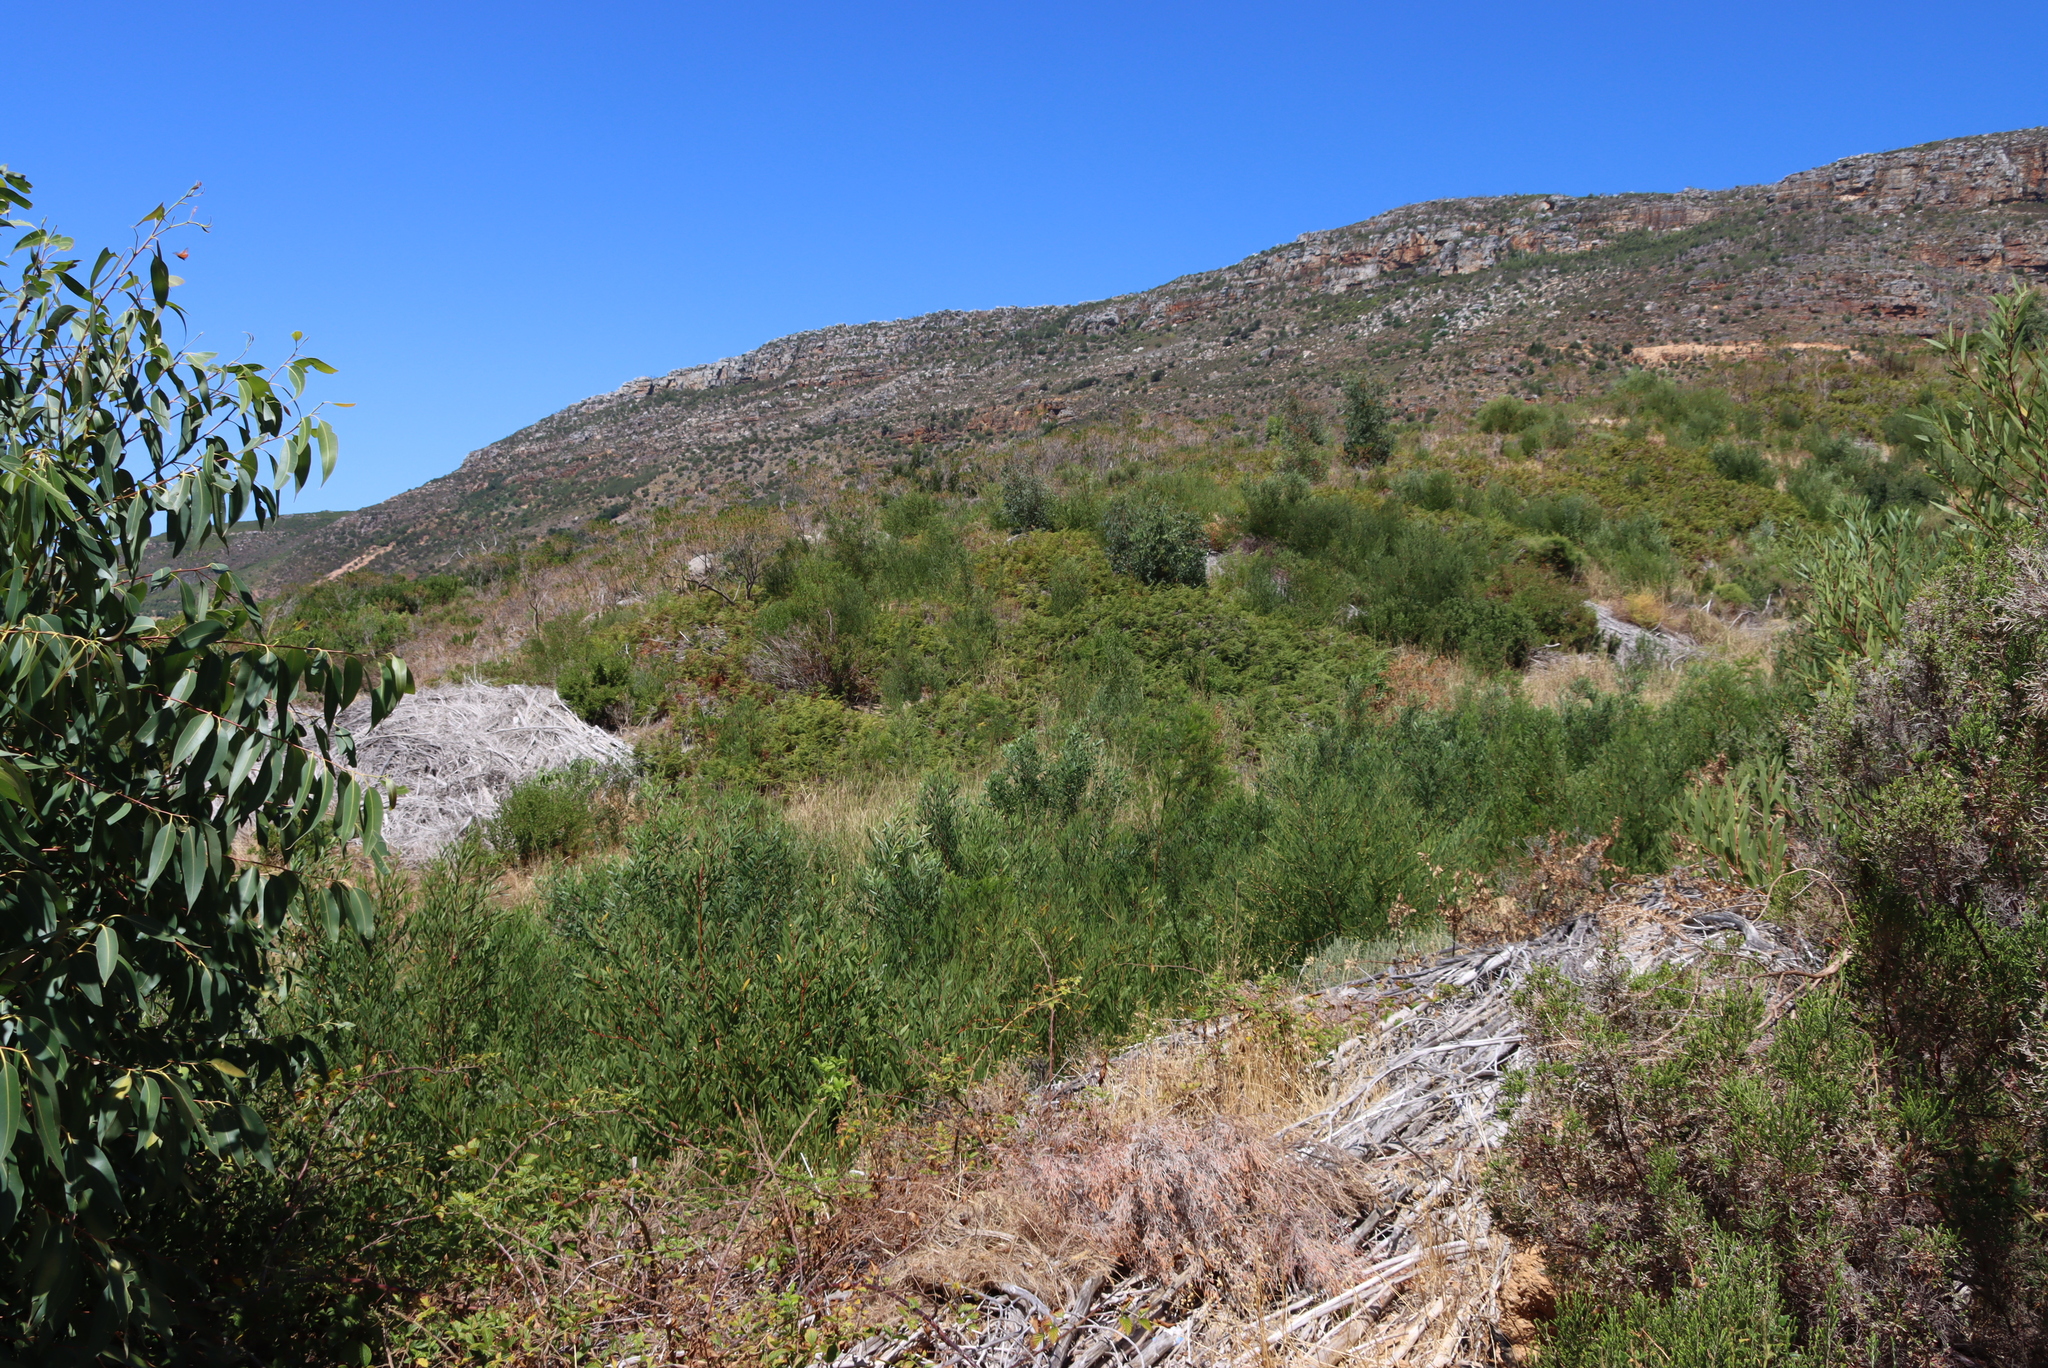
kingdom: Plantae
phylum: Tracheophyta
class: Magnoliopsida
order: Fabales
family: Fabaceae
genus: Acacia
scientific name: Acacia longifolia
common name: Sydney golden wattle
